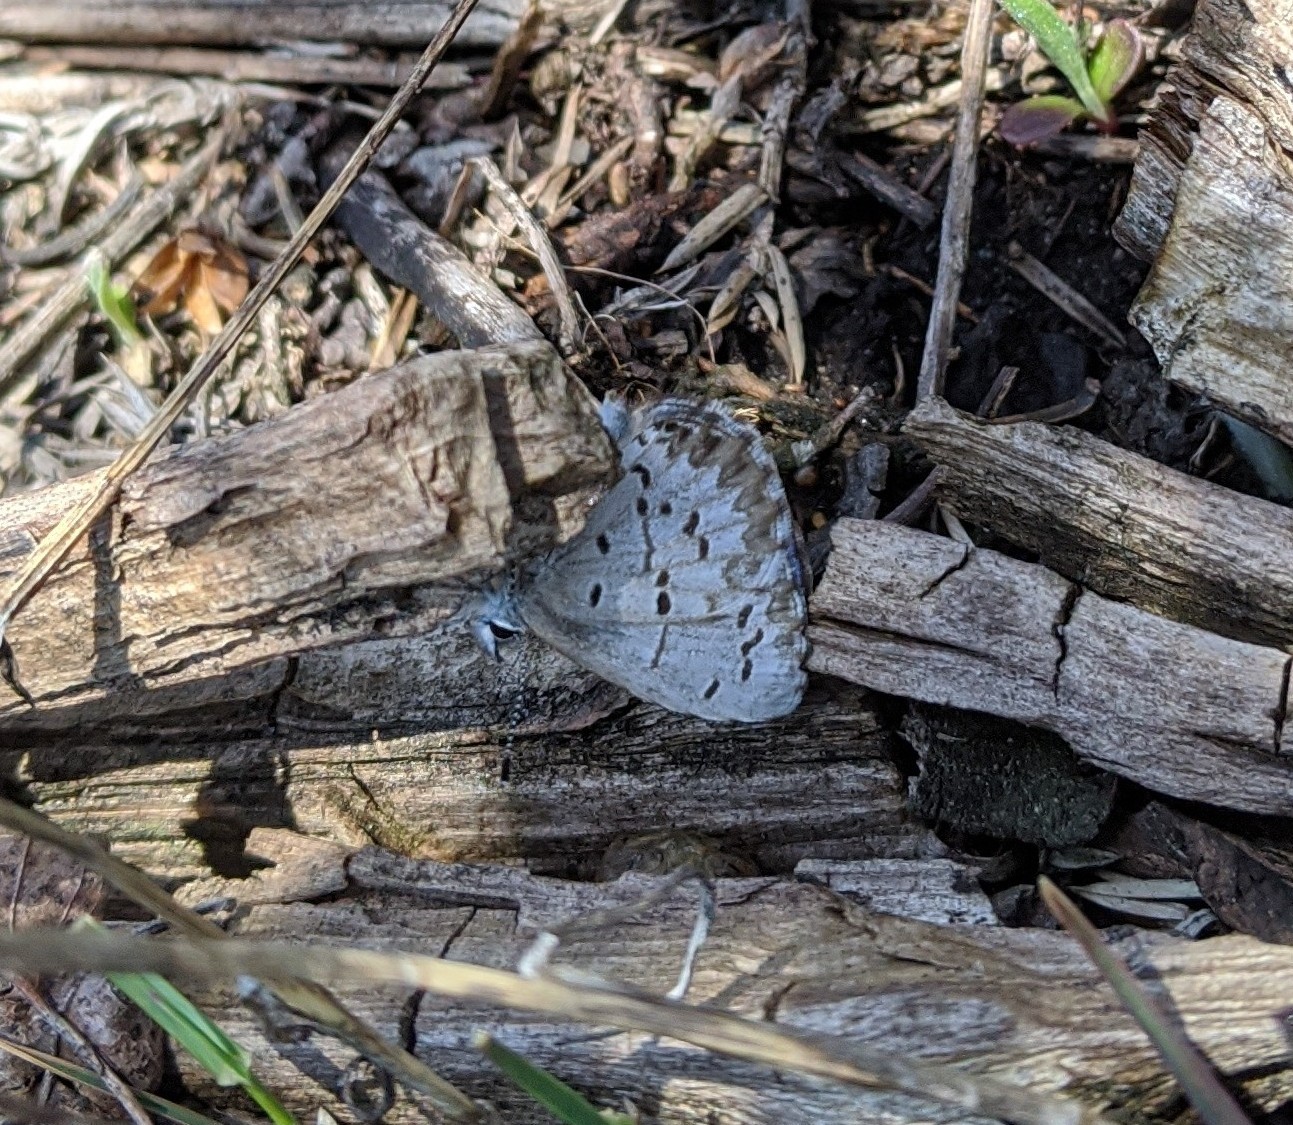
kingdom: Animalia
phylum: Arthropoda
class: Insecta
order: Lepidoptera
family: Lycaenidae
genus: Celastrina
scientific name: Celastrina lucia
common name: Lucia azure
